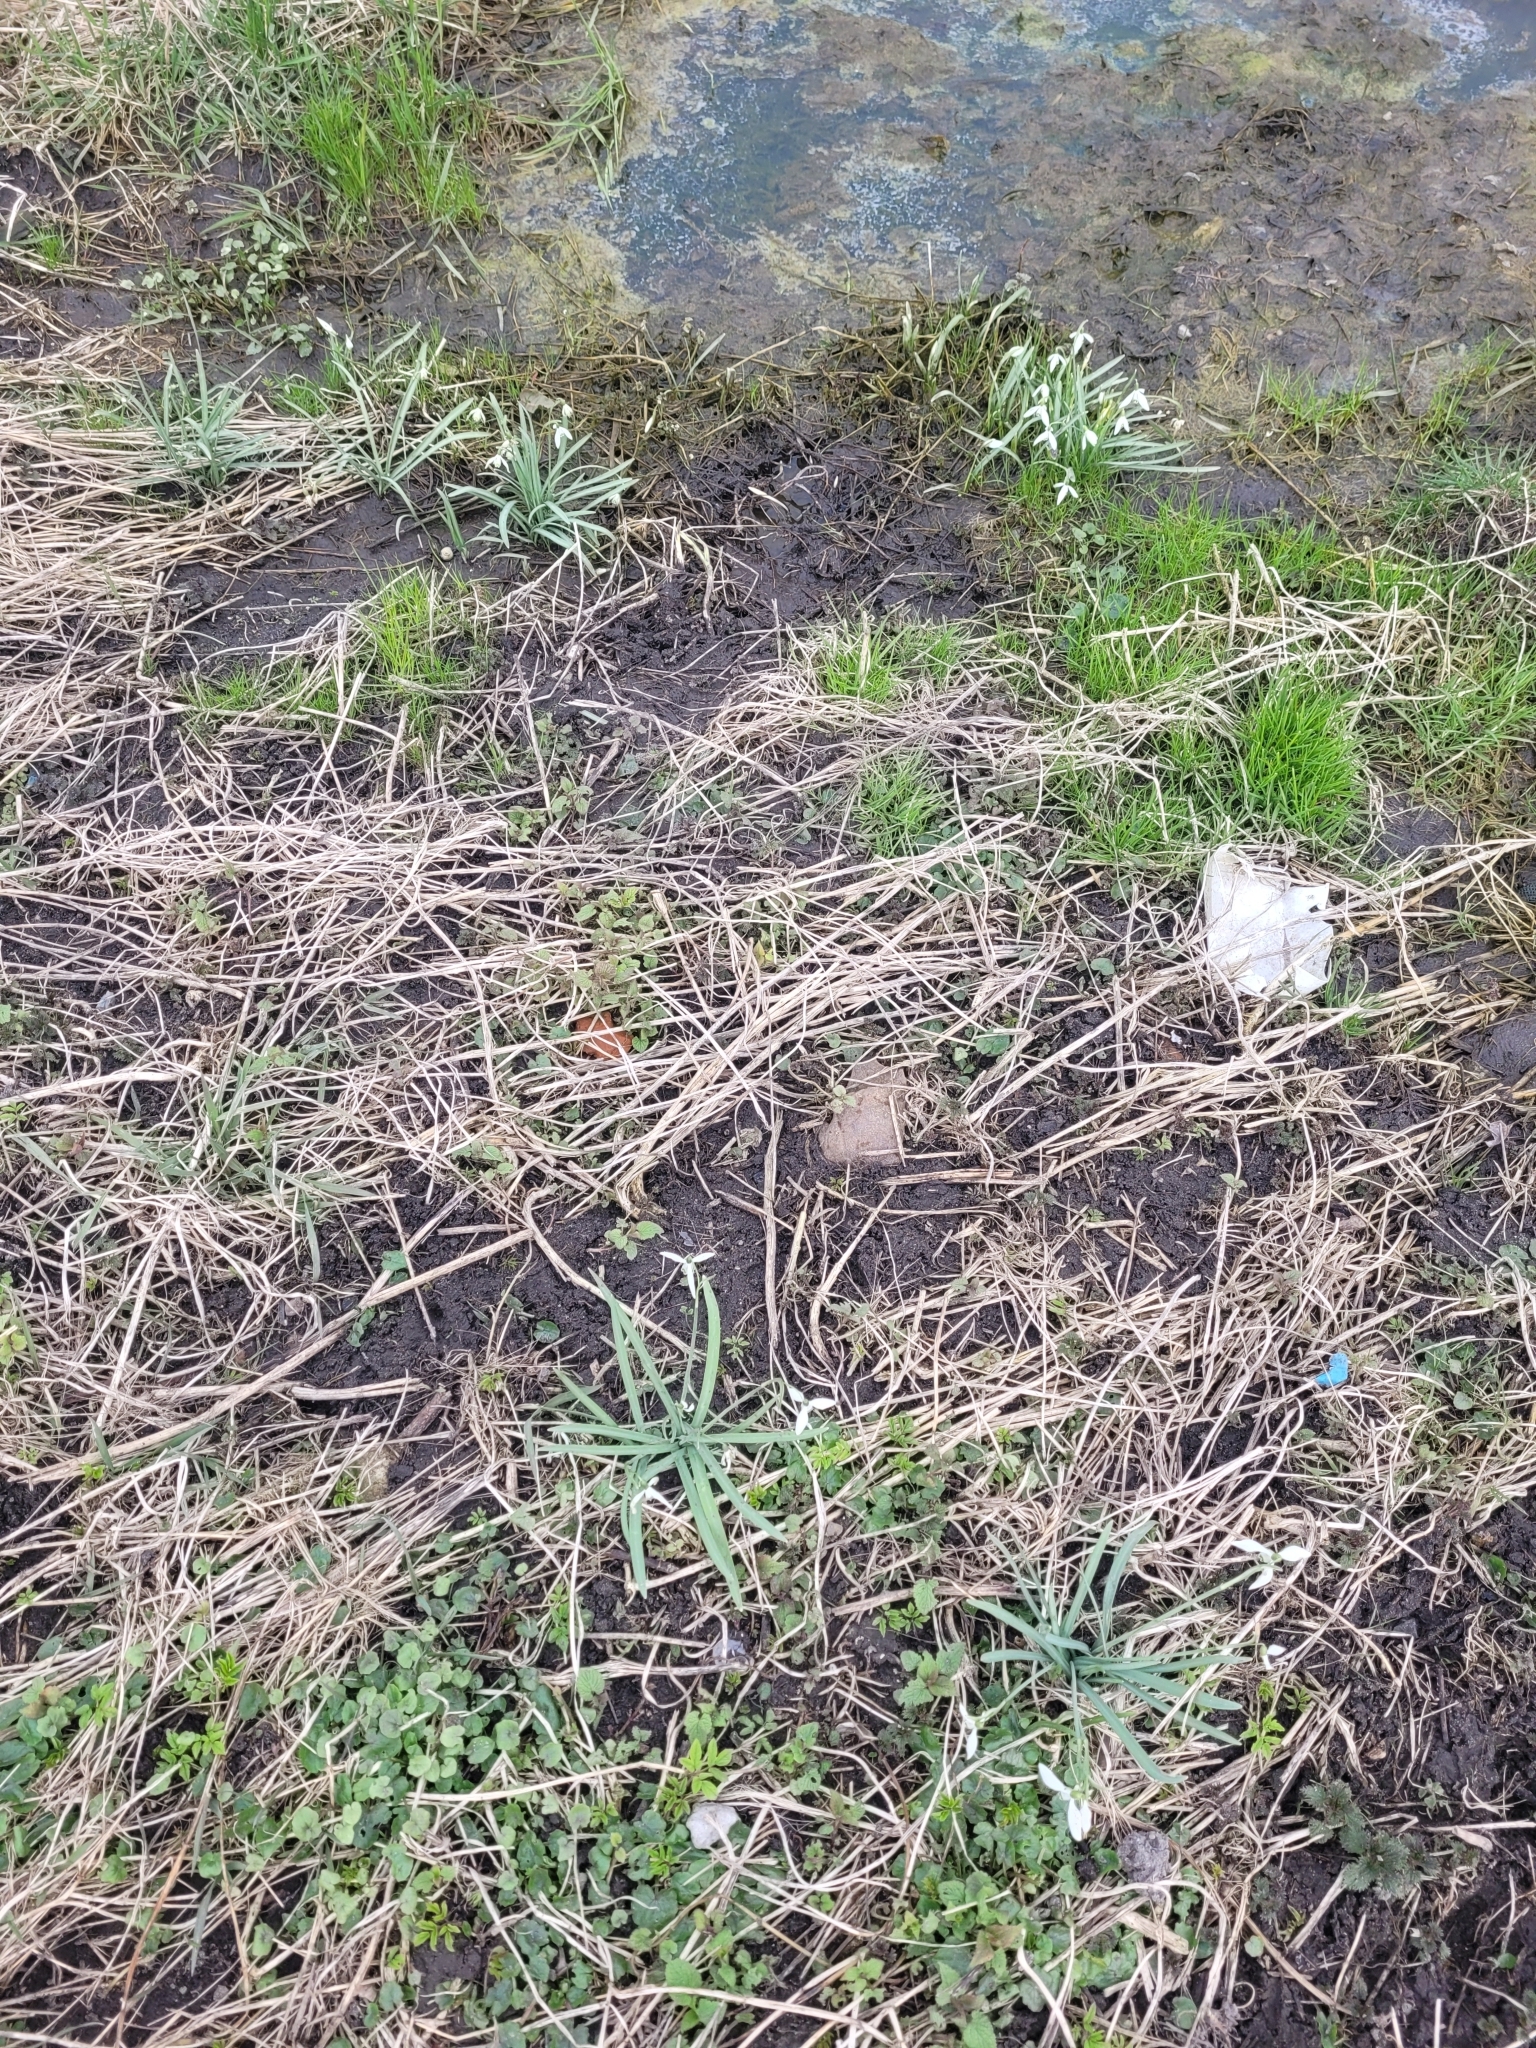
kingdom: Plantae
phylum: Tracheophyta
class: Liliopsida
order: Asparagales
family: Amaryllidaceae
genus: Galanthus
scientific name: Galanthus nivalis
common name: Snowdrop
